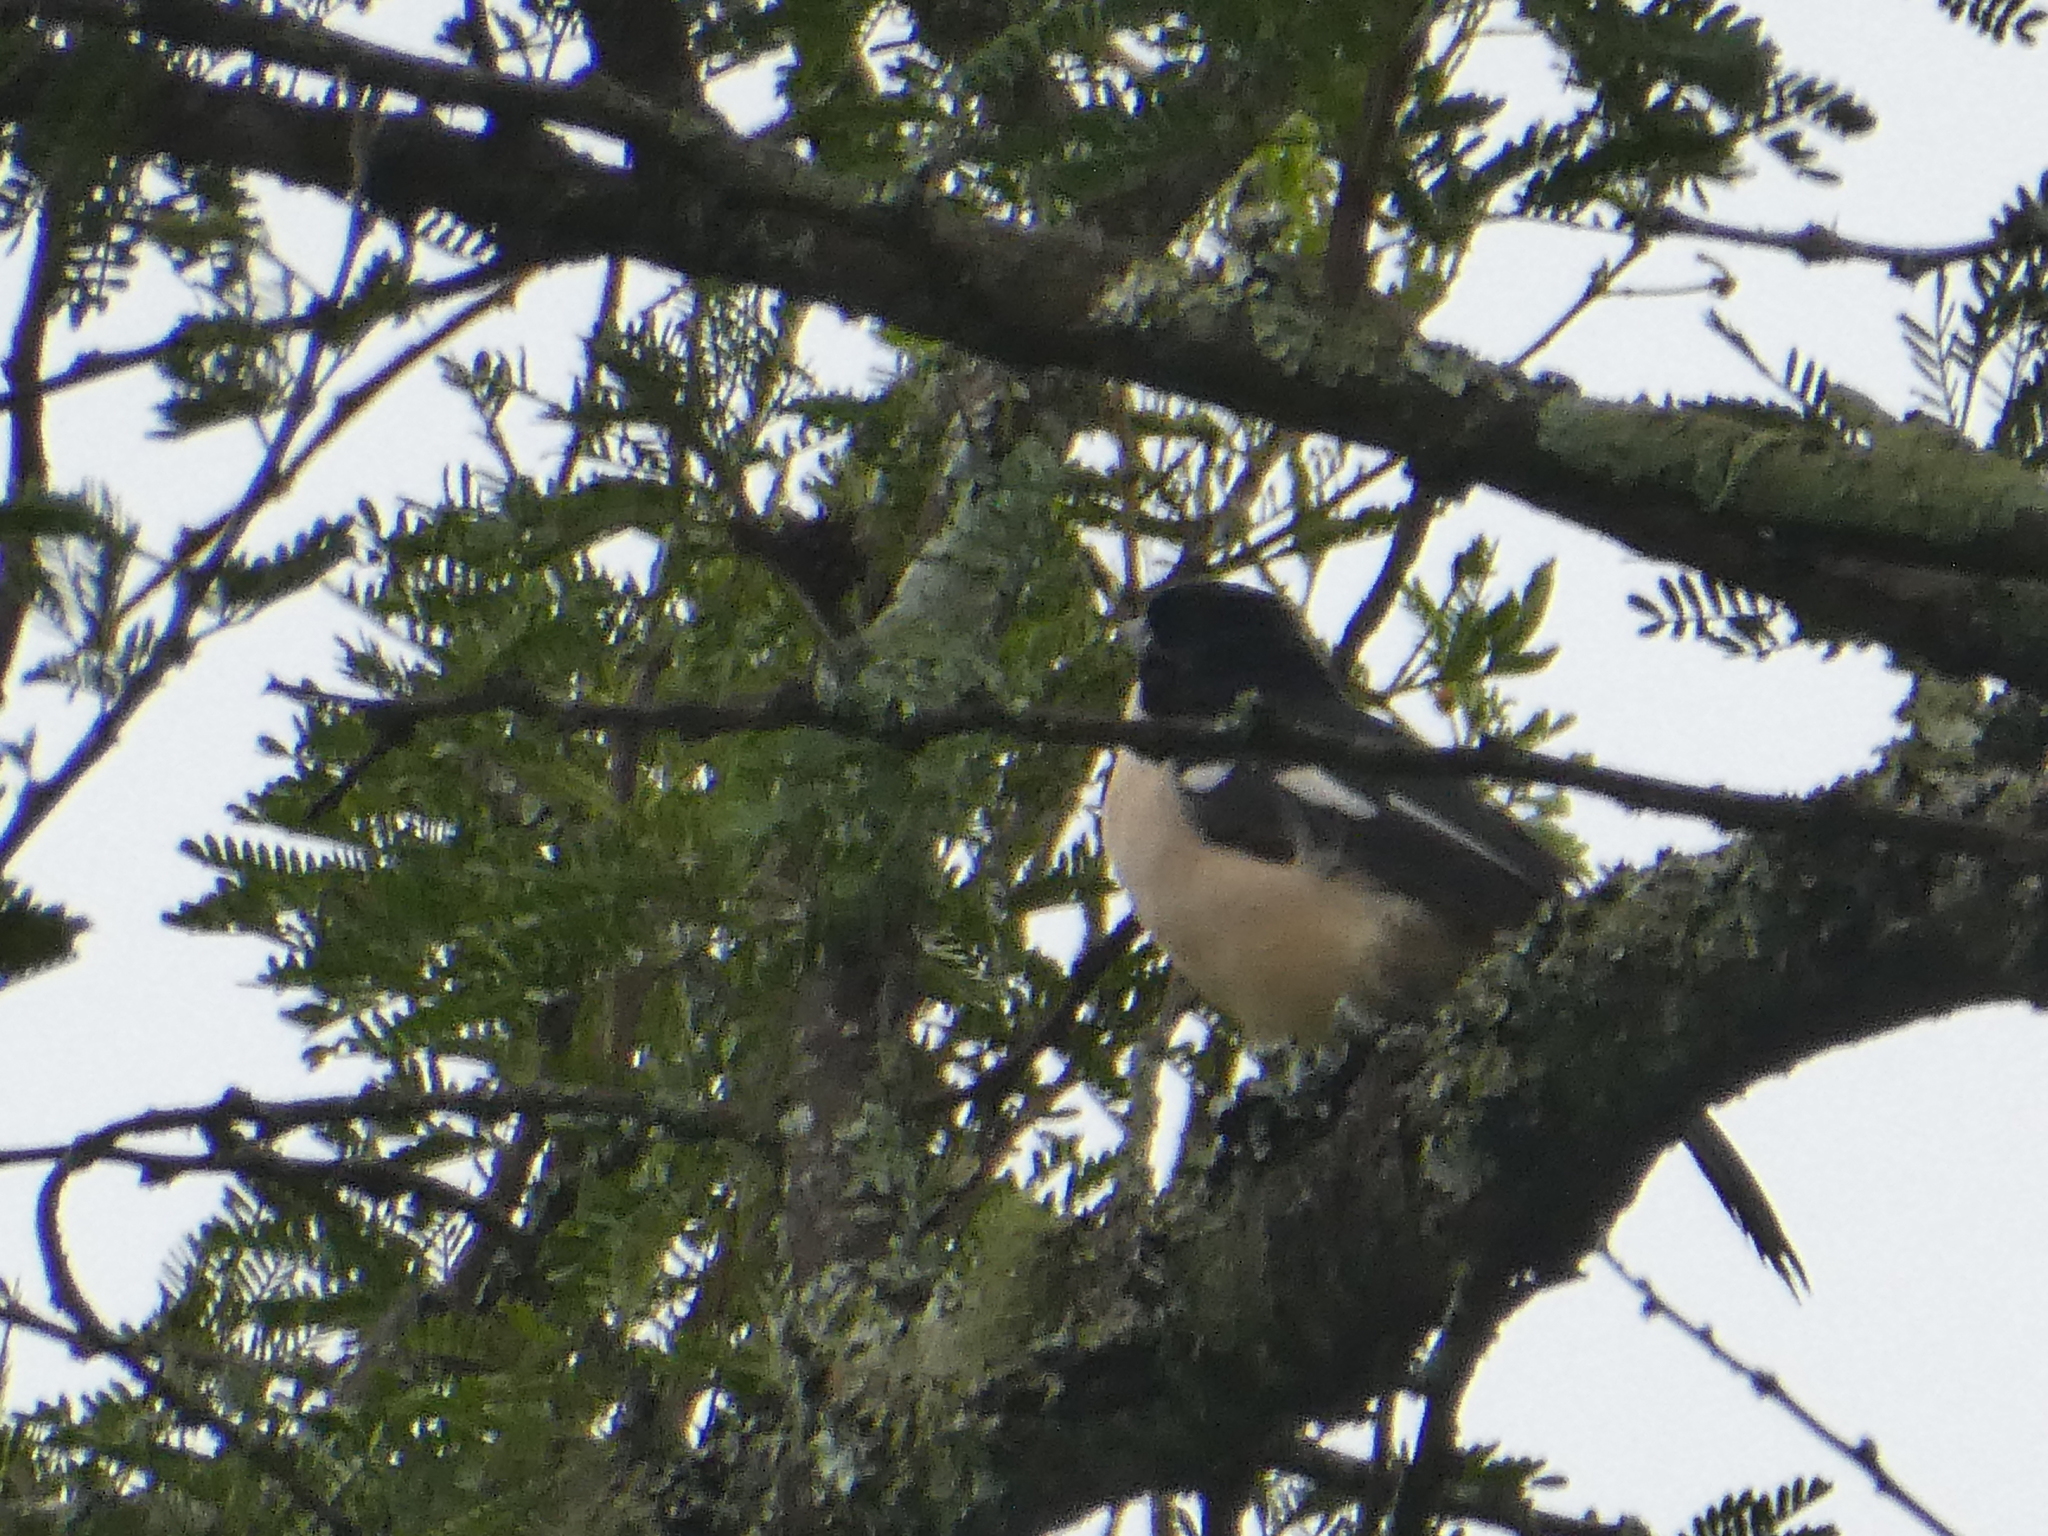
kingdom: Animalia
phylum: Chordata
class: Aves
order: Passeriformes
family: Malaconotidae
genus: Laniarius
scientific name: Laniarius major
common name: Tropical boubou
